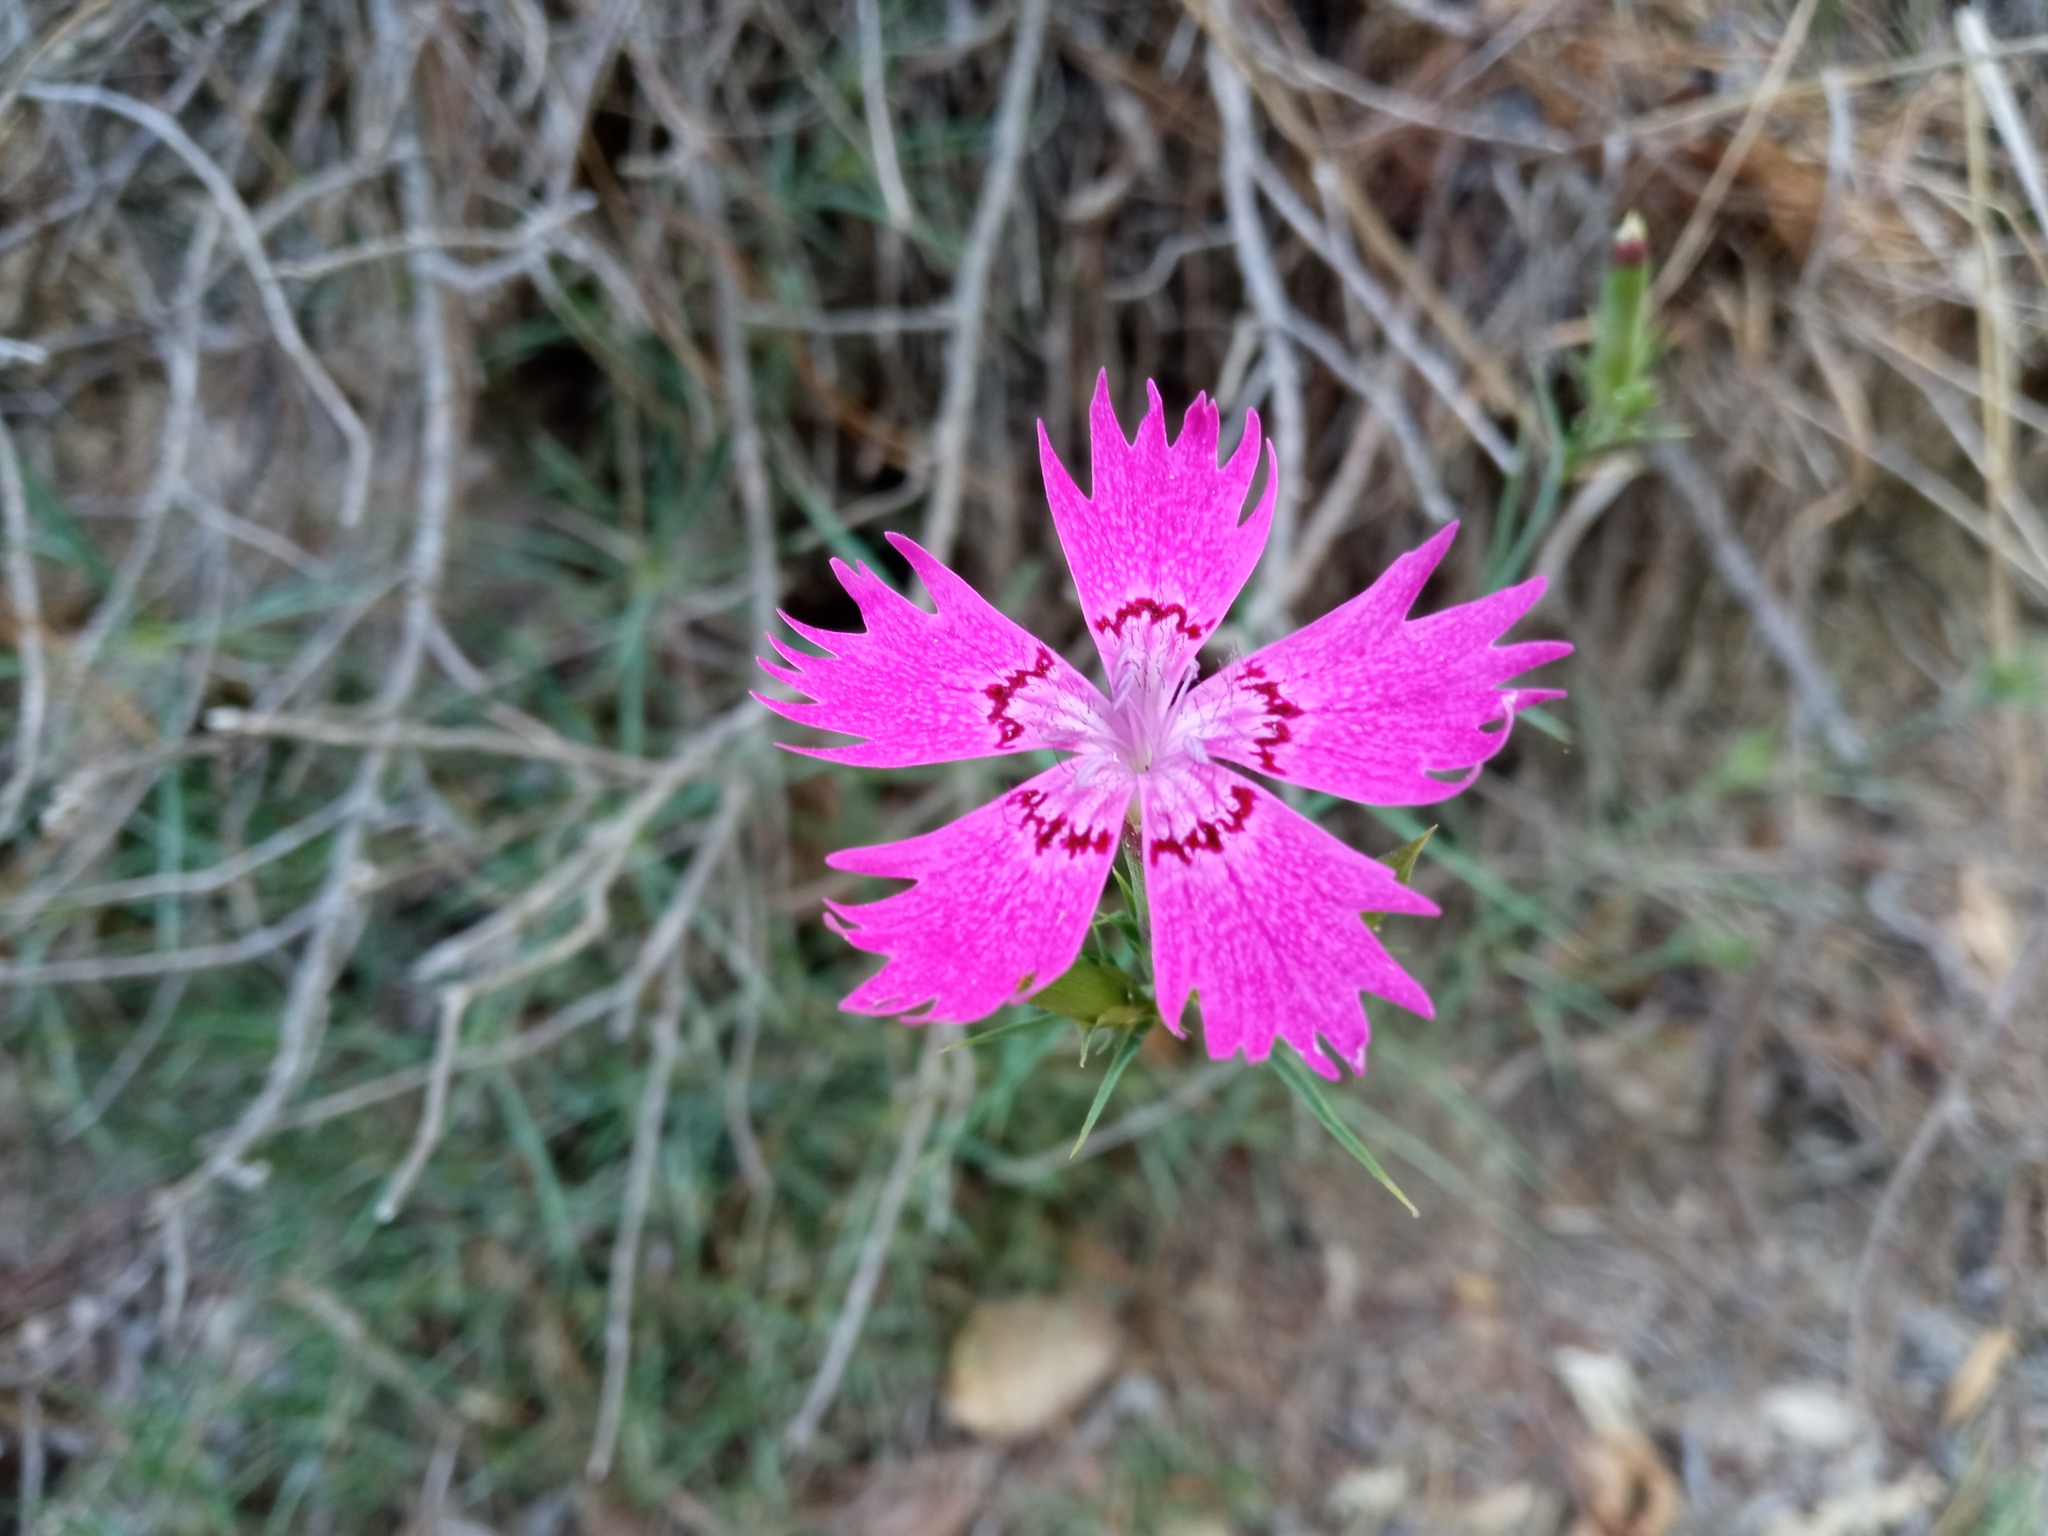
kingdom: Plantae
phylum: Tracheophyta
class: Magnoliopsida
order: Caryophyllales
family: Caryophyllaceae
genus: Dianthus
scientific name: Dianthus seguieri
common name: Ragged pink
